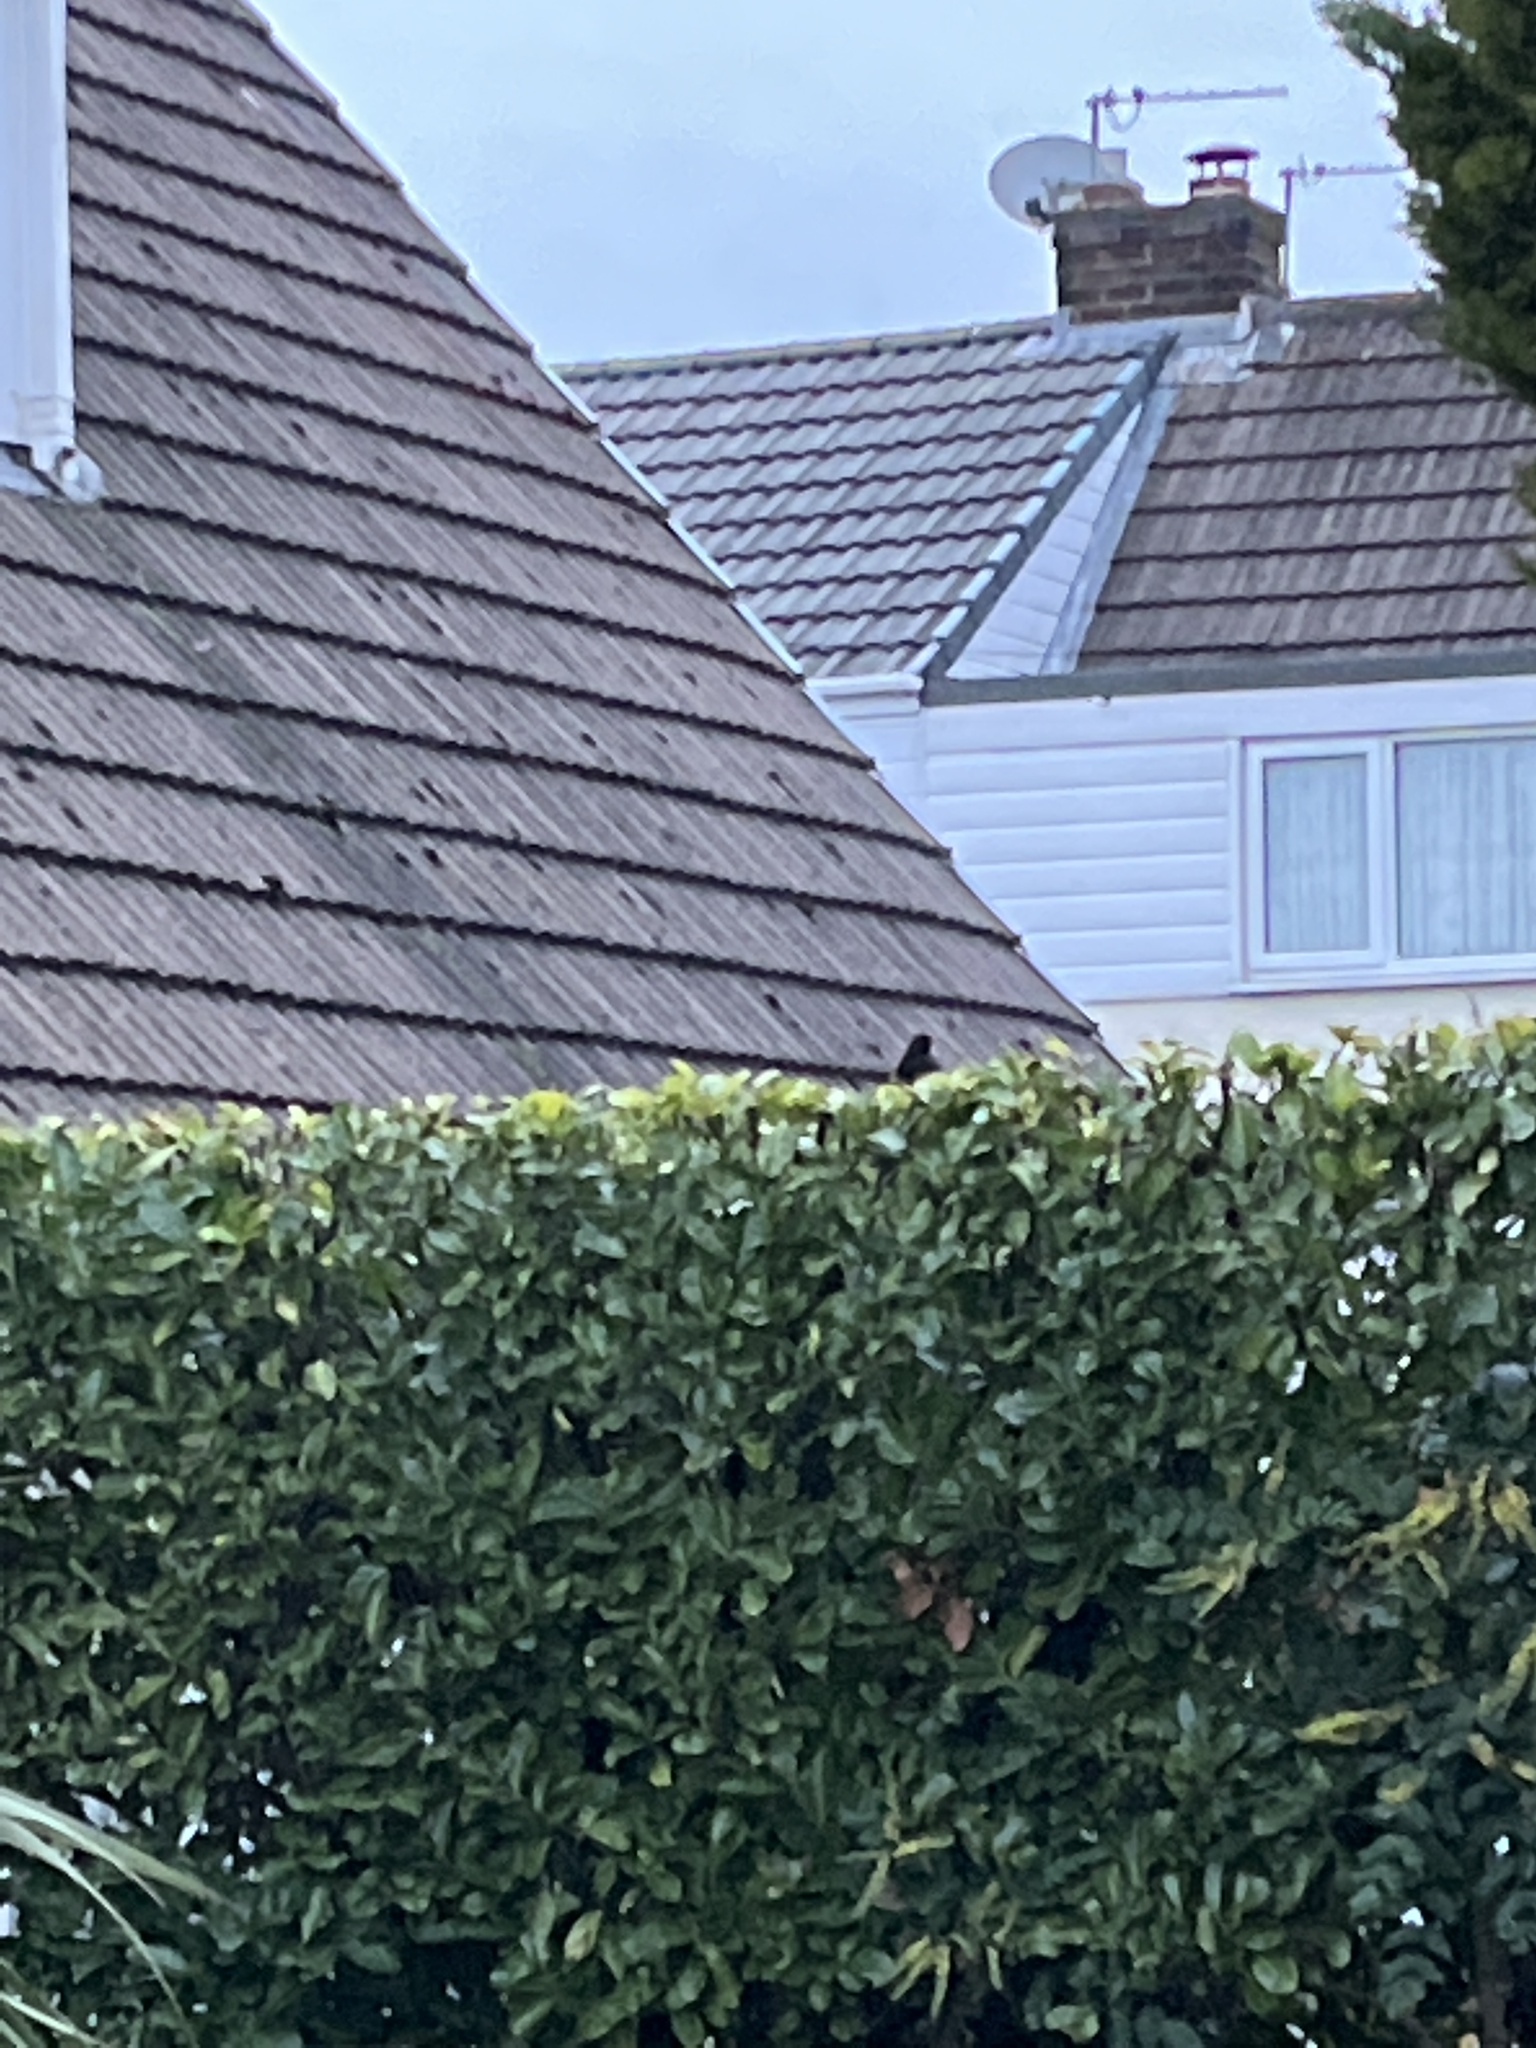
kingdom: Animalia
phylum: Chordata
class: Aves
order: Passeriformes
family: Turdidae
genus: Turdus
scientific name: Turdus merula
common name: Common blackbird
